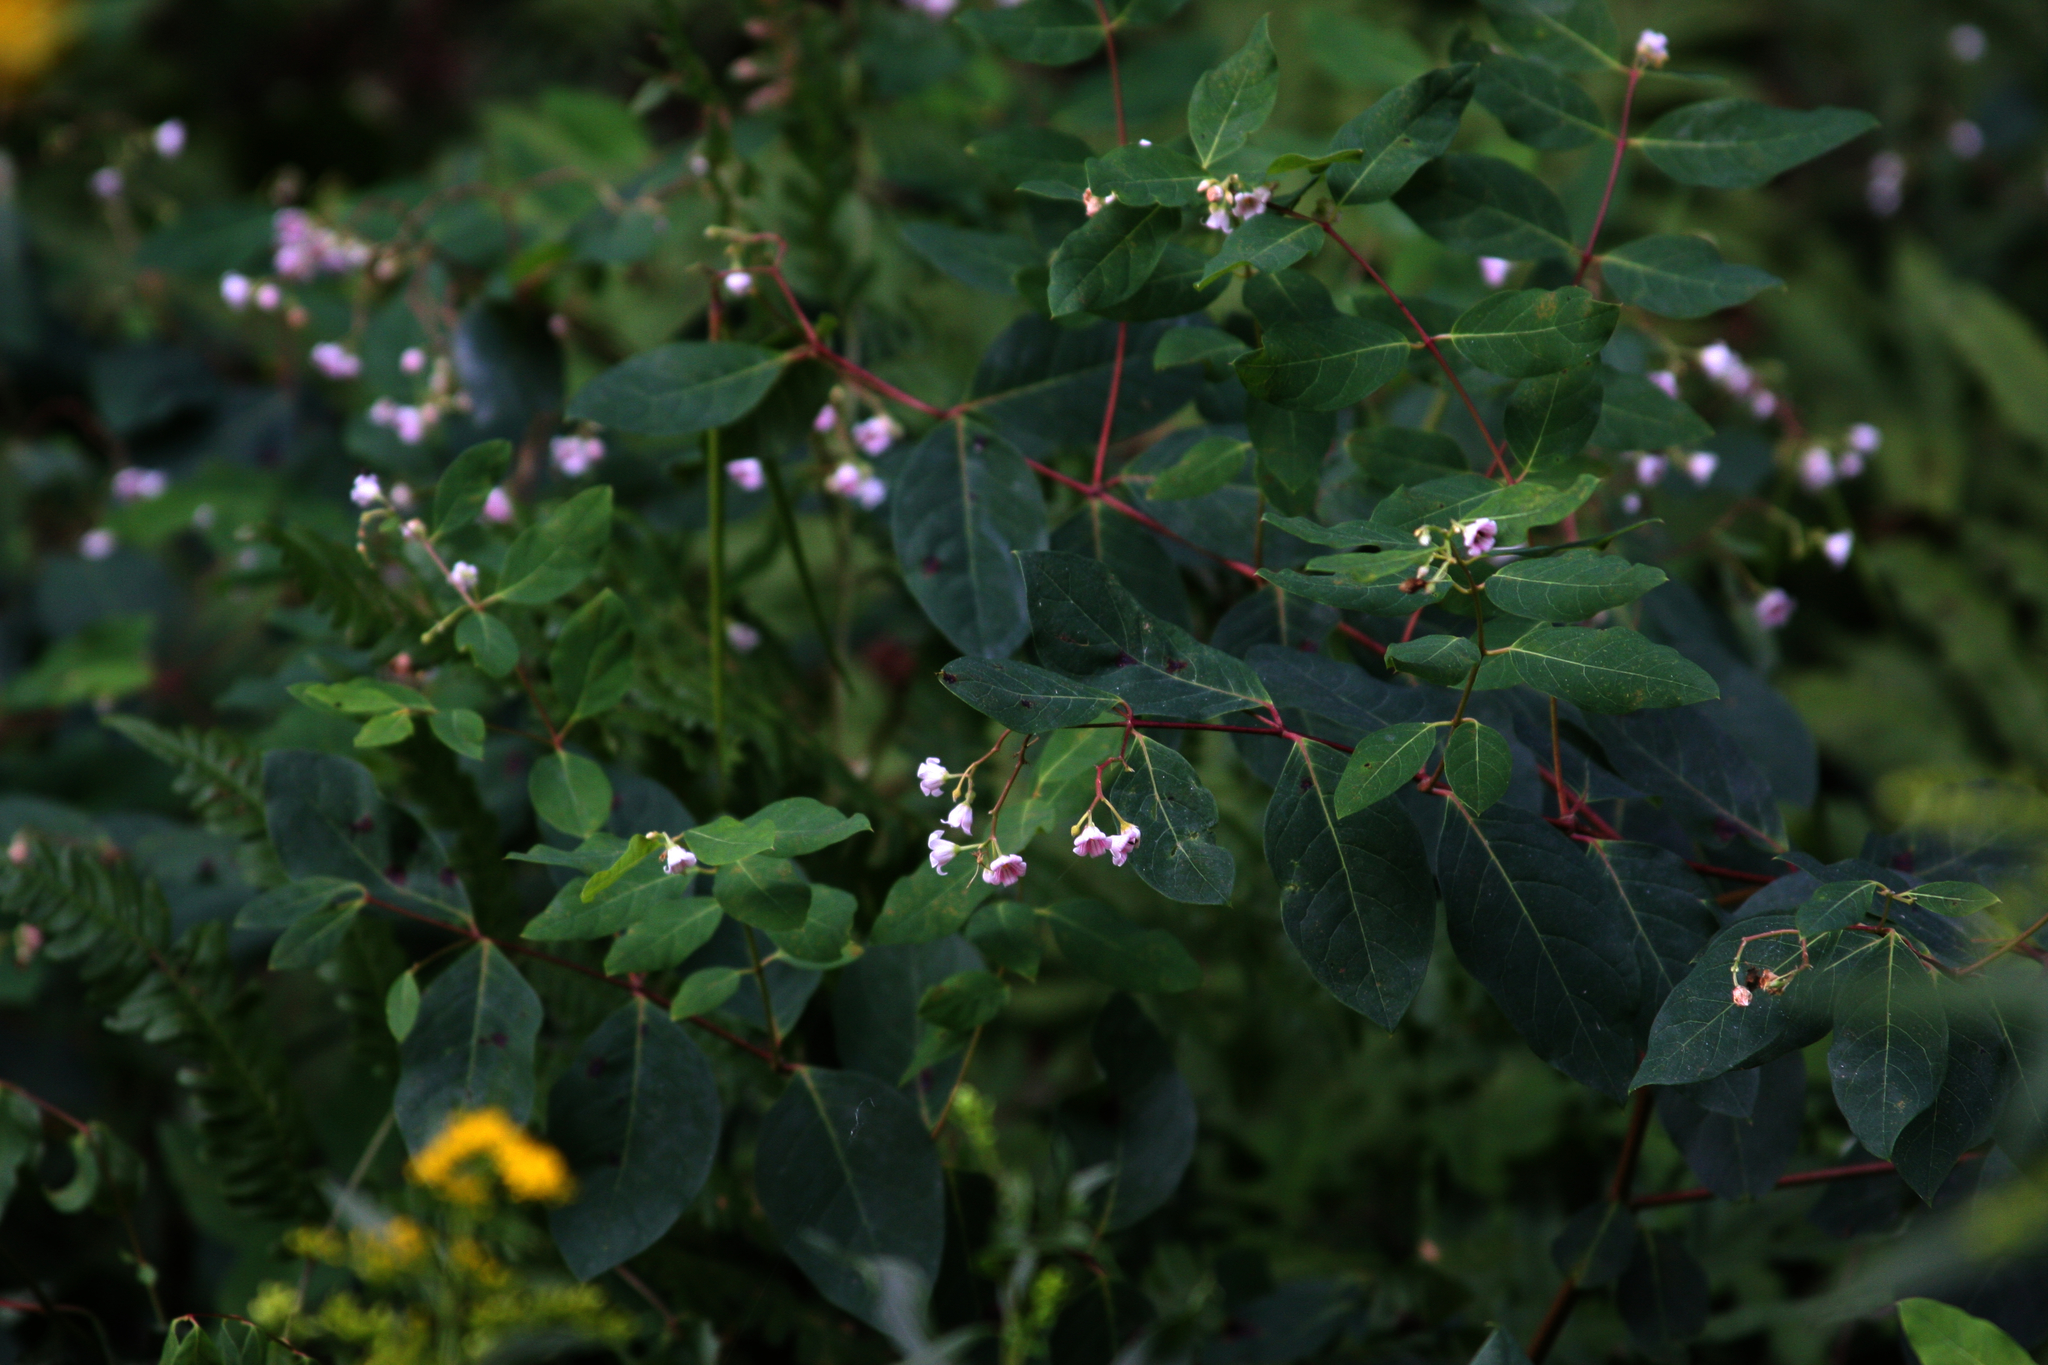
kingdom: Plantae
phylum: Tracheophyta
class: Magnoliopsida
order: Gentianales
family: Apocynaceae
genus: Apocynum
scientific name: Apocynum androsaemifolium
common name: Spreading dogbane
